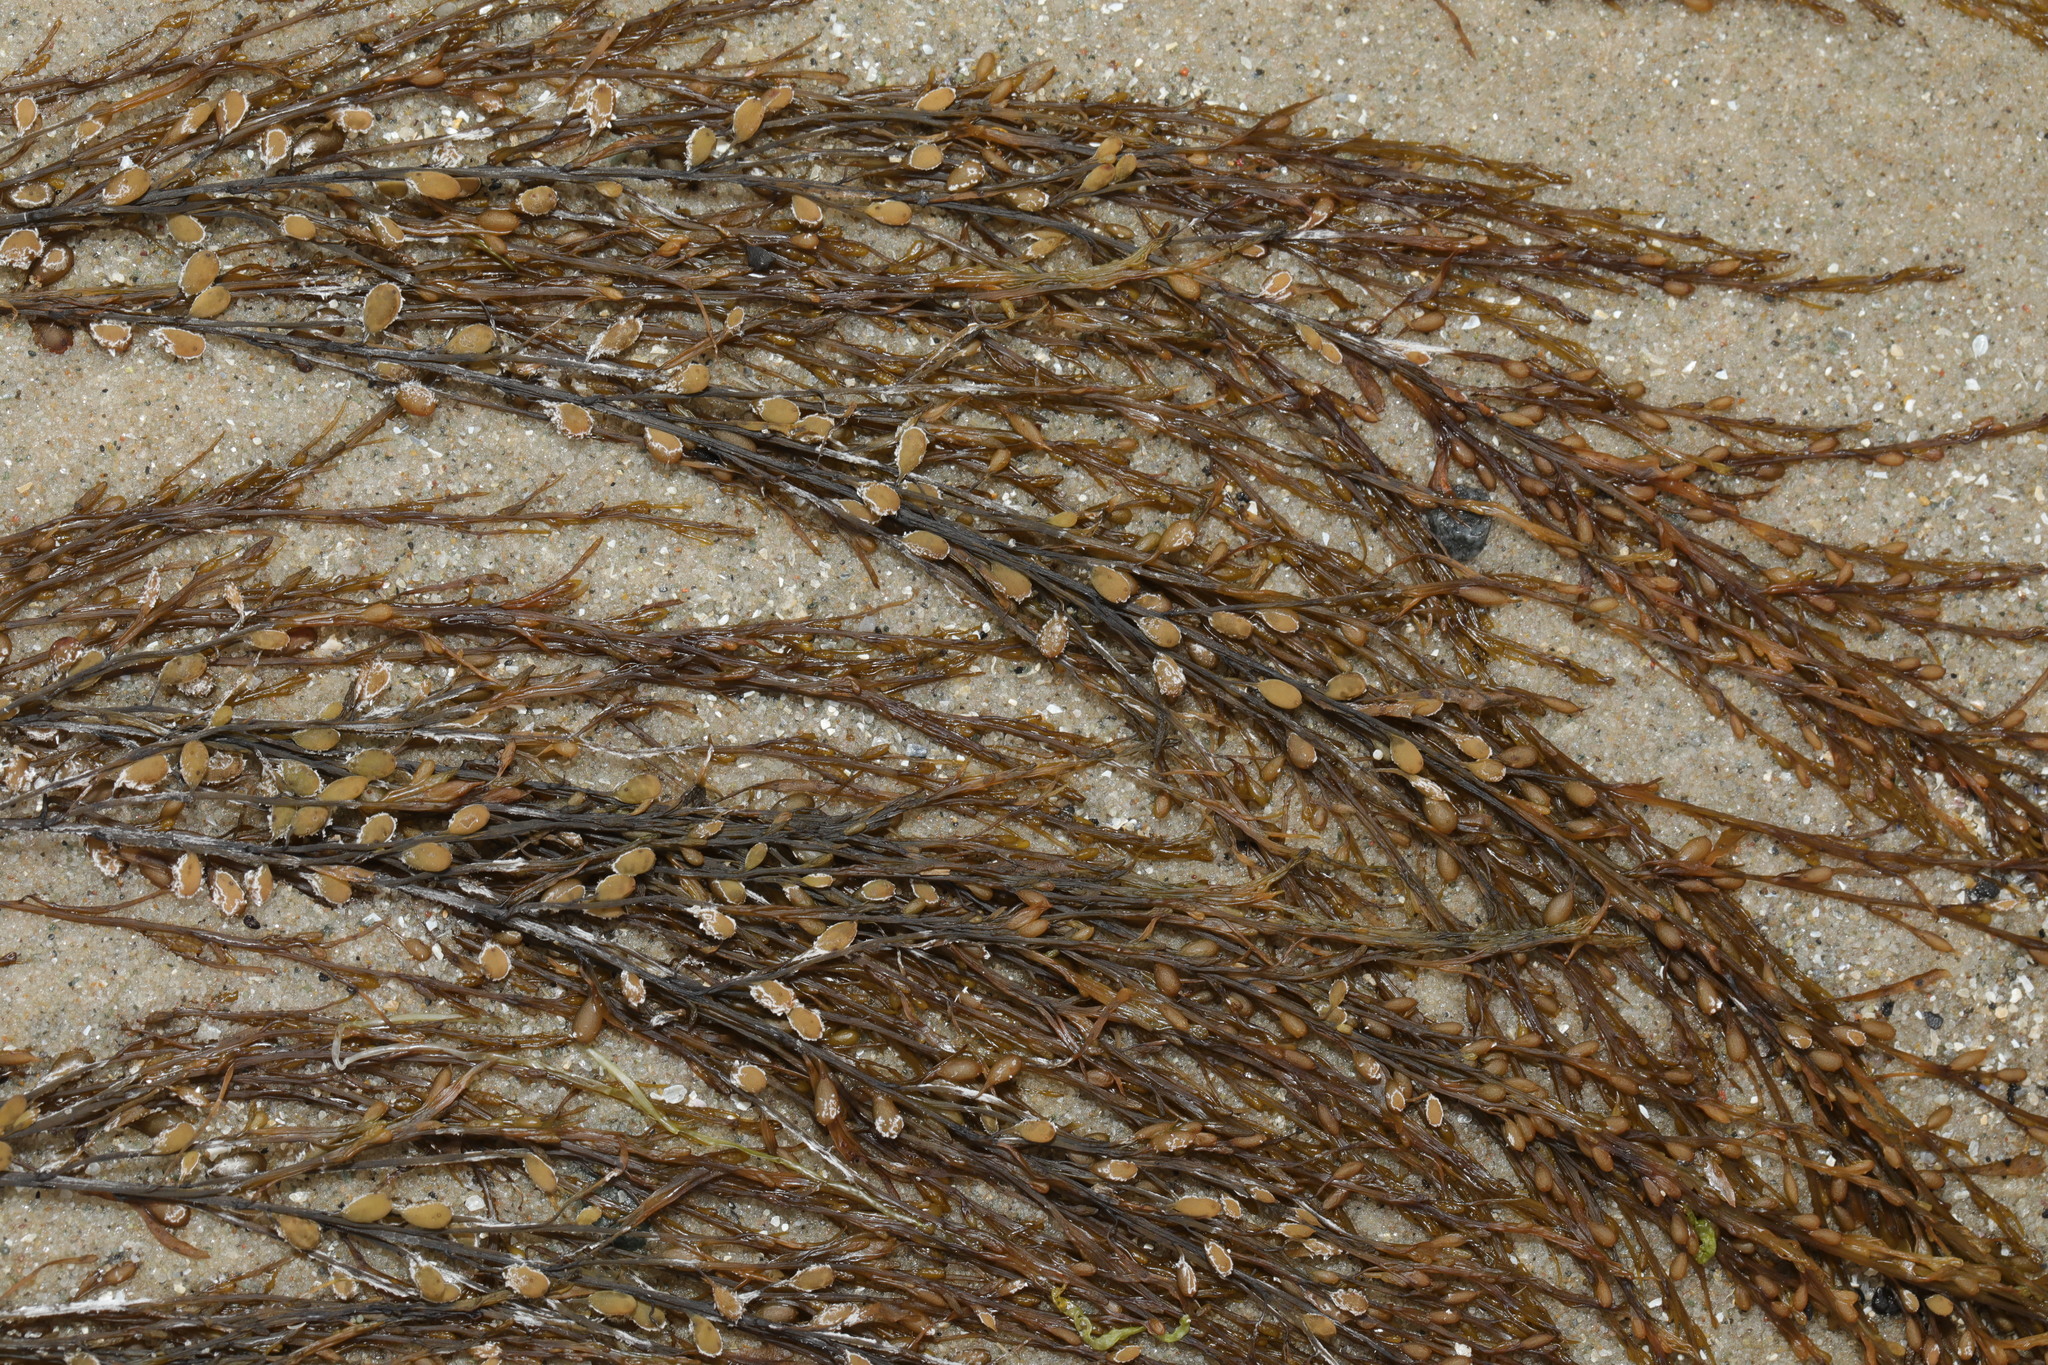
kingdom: Chromista
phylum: Ochrophyta
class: Phaeophyceae
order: Fucales
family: Sargassaceae
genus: Sargassum
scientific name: Sargassum muticum
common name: Japweed
